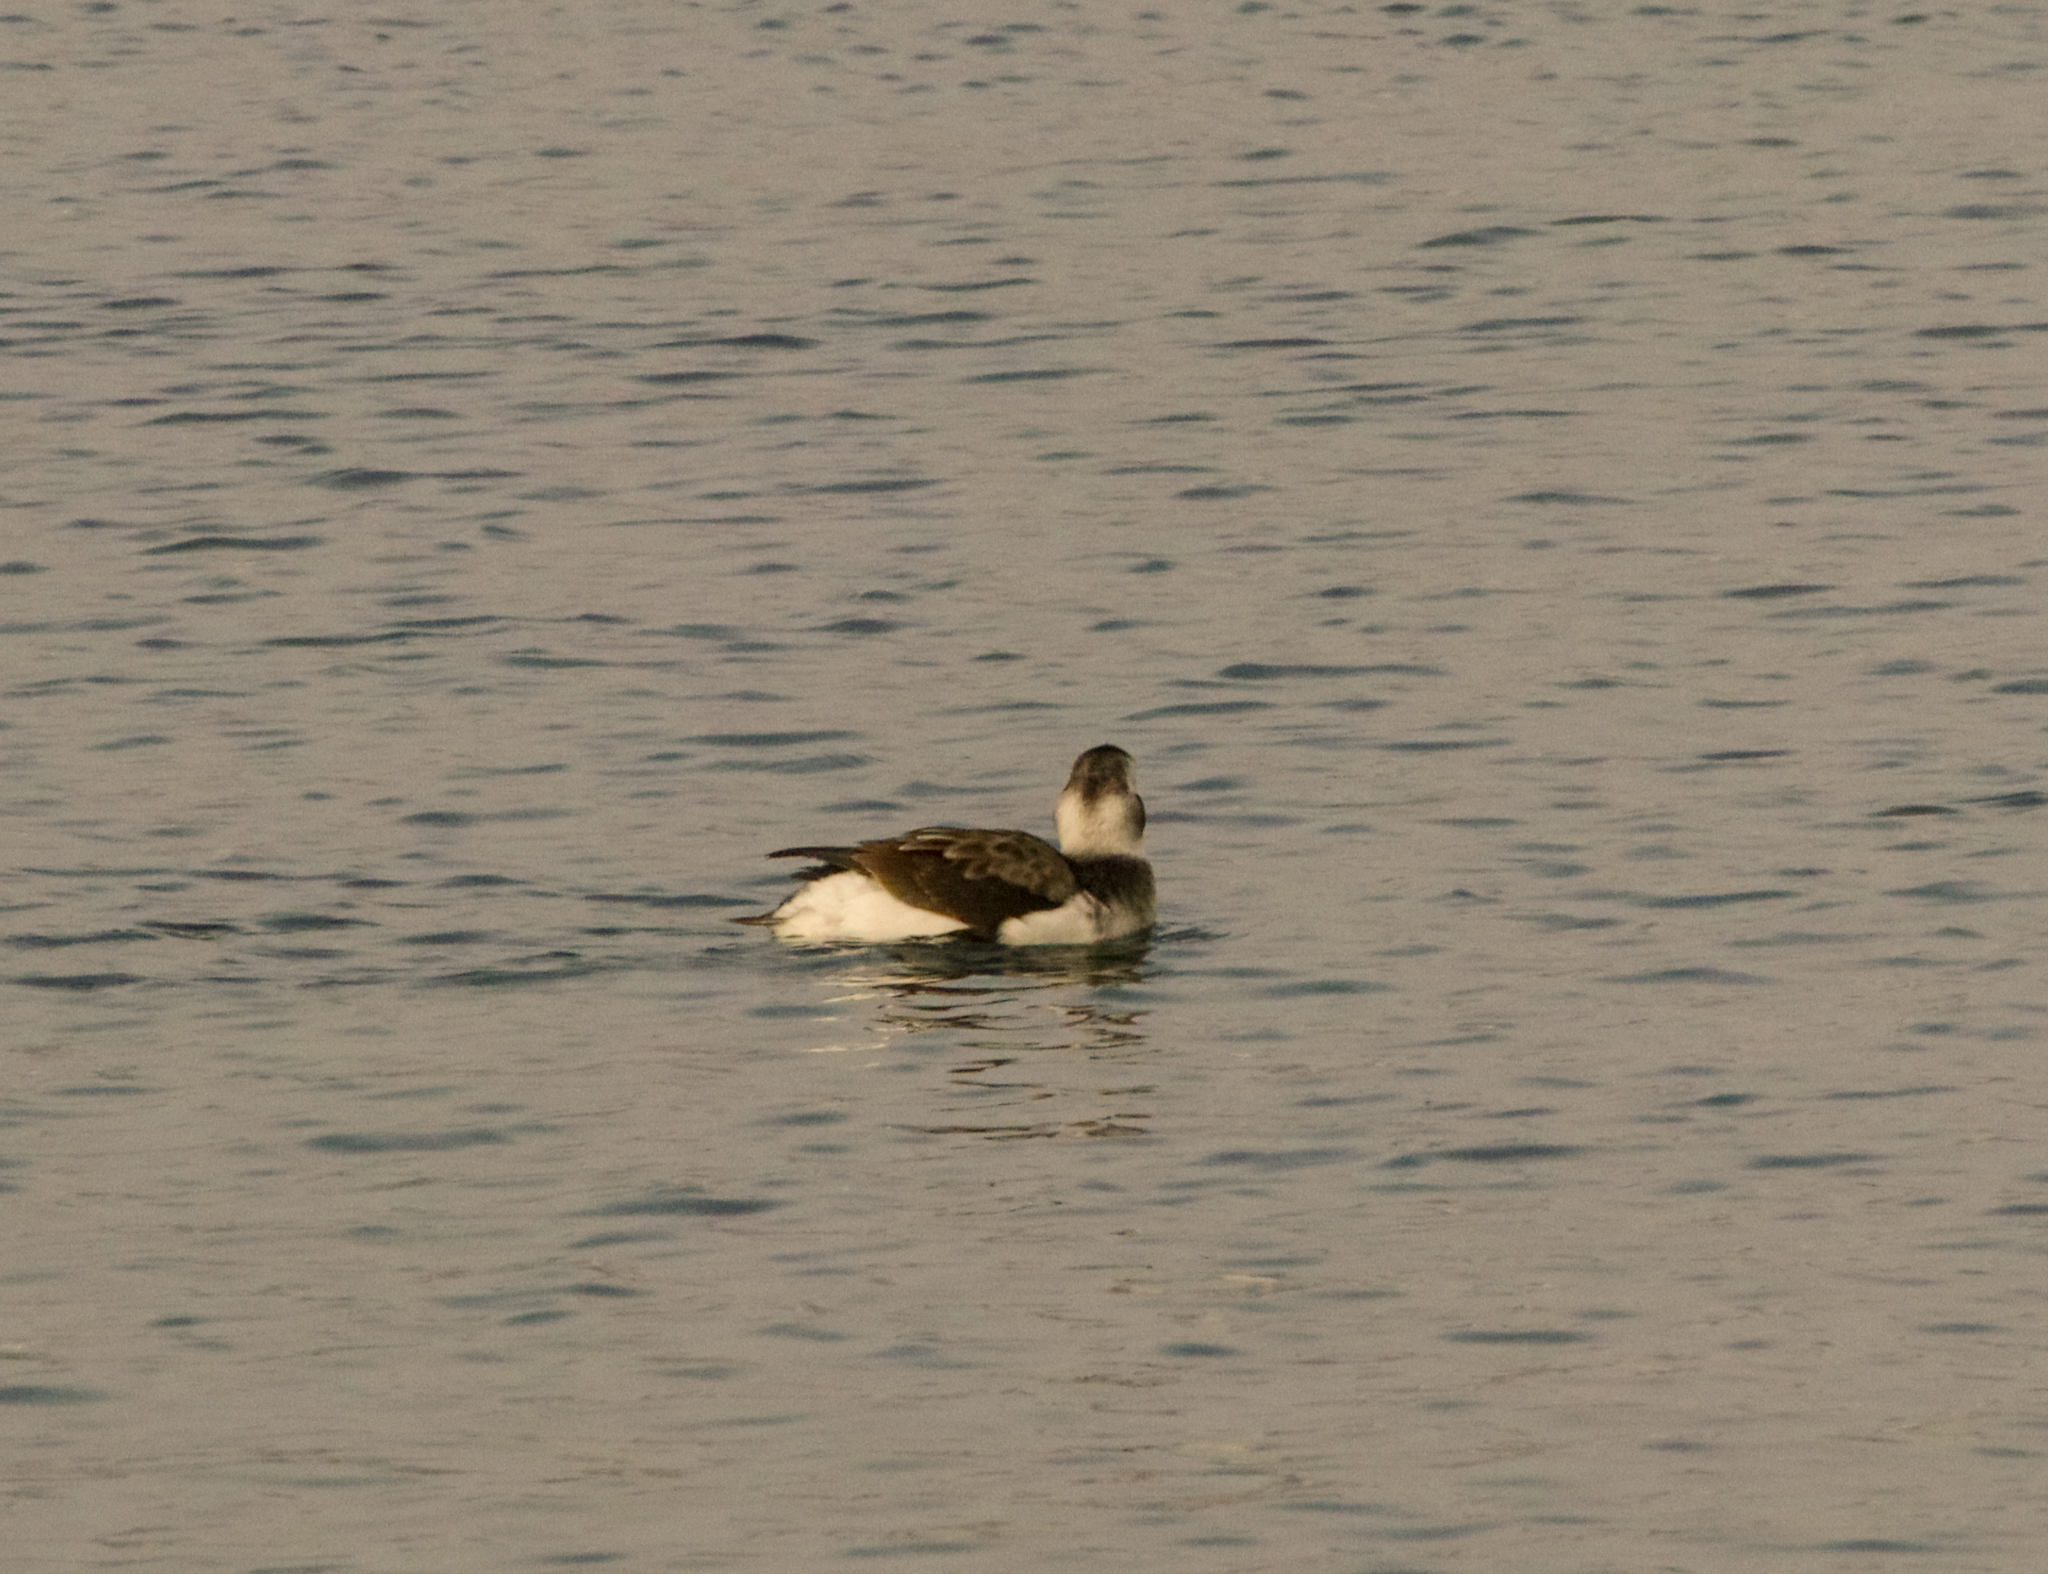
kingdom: Animalia
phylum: Chordata
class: Aves
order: Anseriformes
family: Anatidae
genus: Clangula
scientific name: Clangula hyemalis
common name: Long-tailed duck
